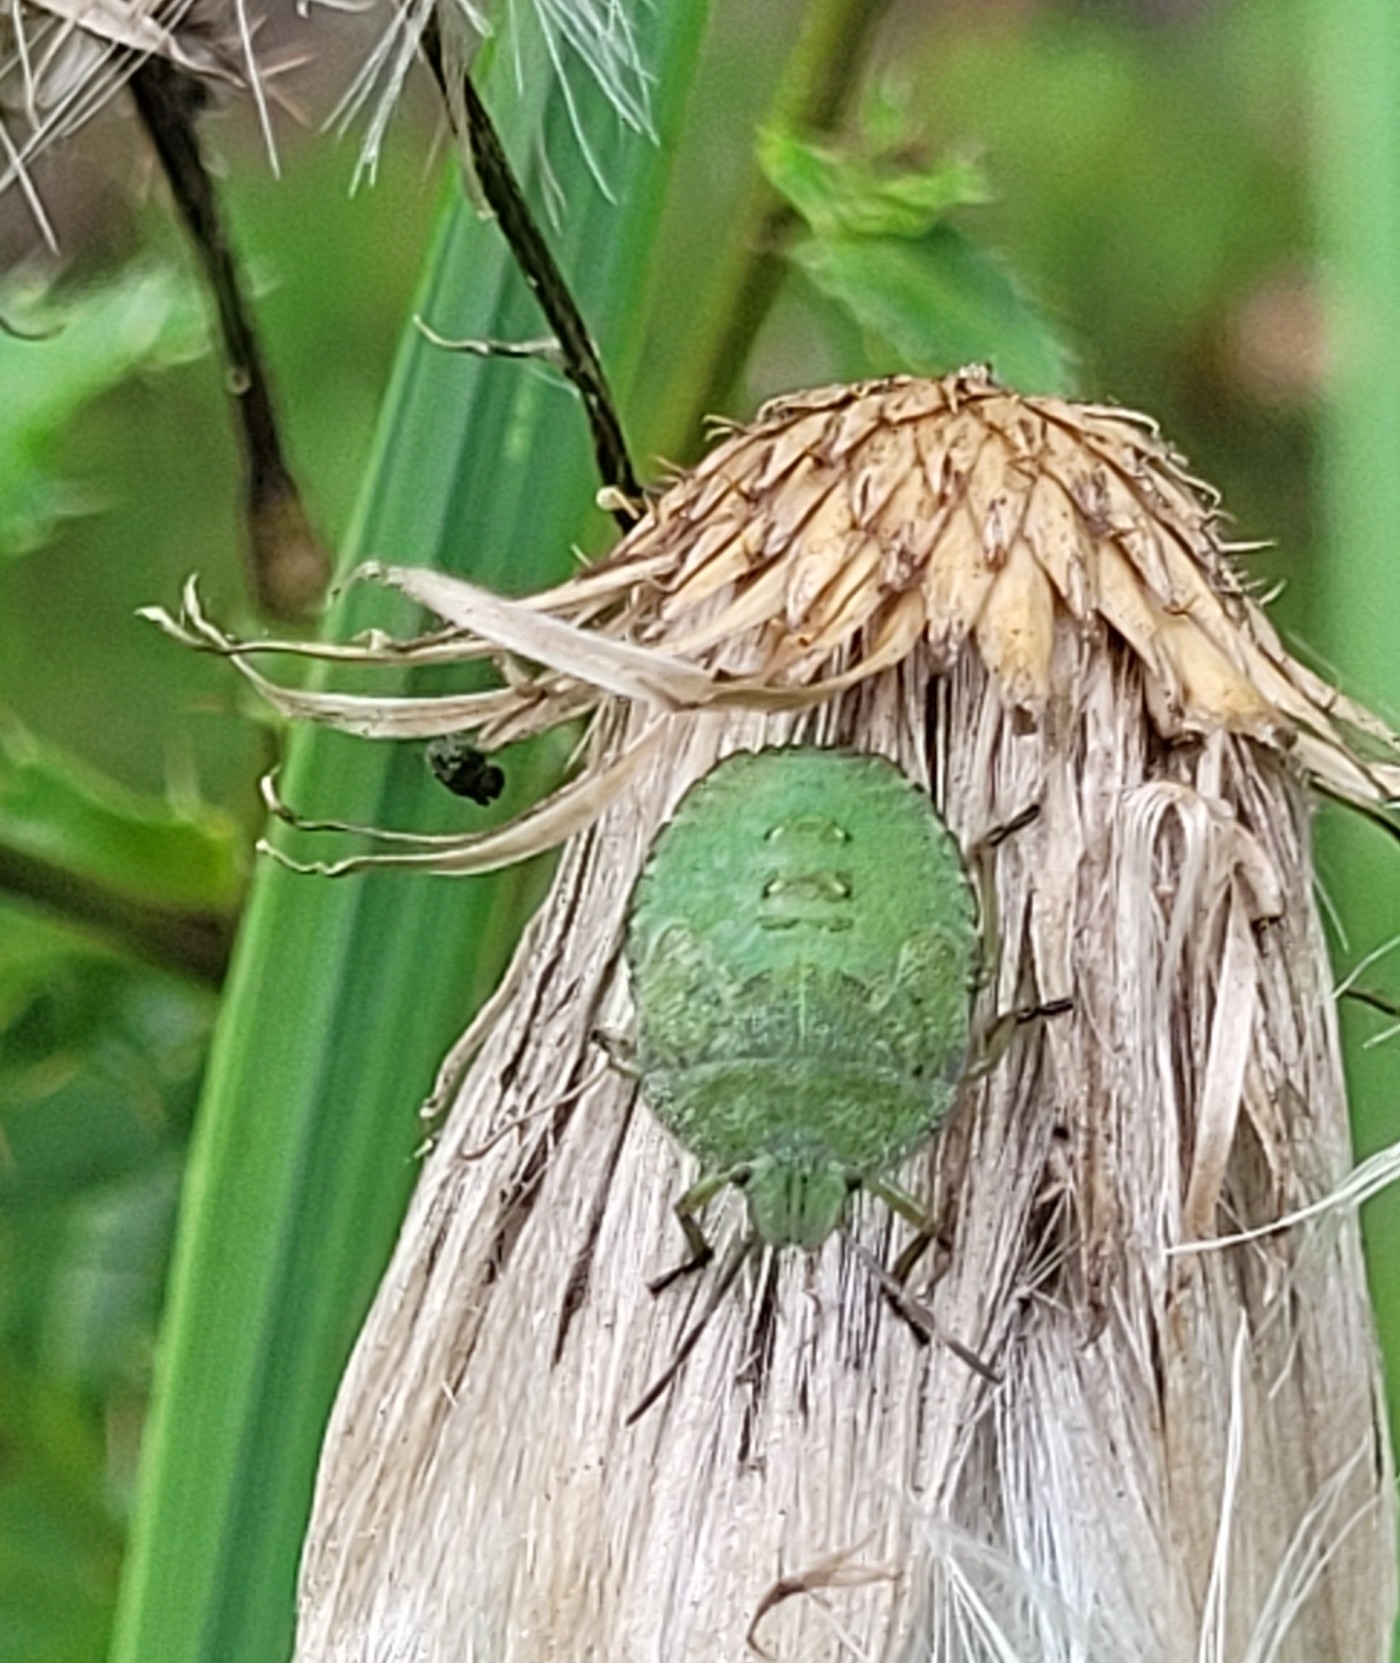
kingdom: Animalia
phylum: Arthropoda
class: Insecta
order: Hemiptera
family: Pentatomidae
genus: Palomena
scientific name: Palomena prasina
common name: Green shieldbug
